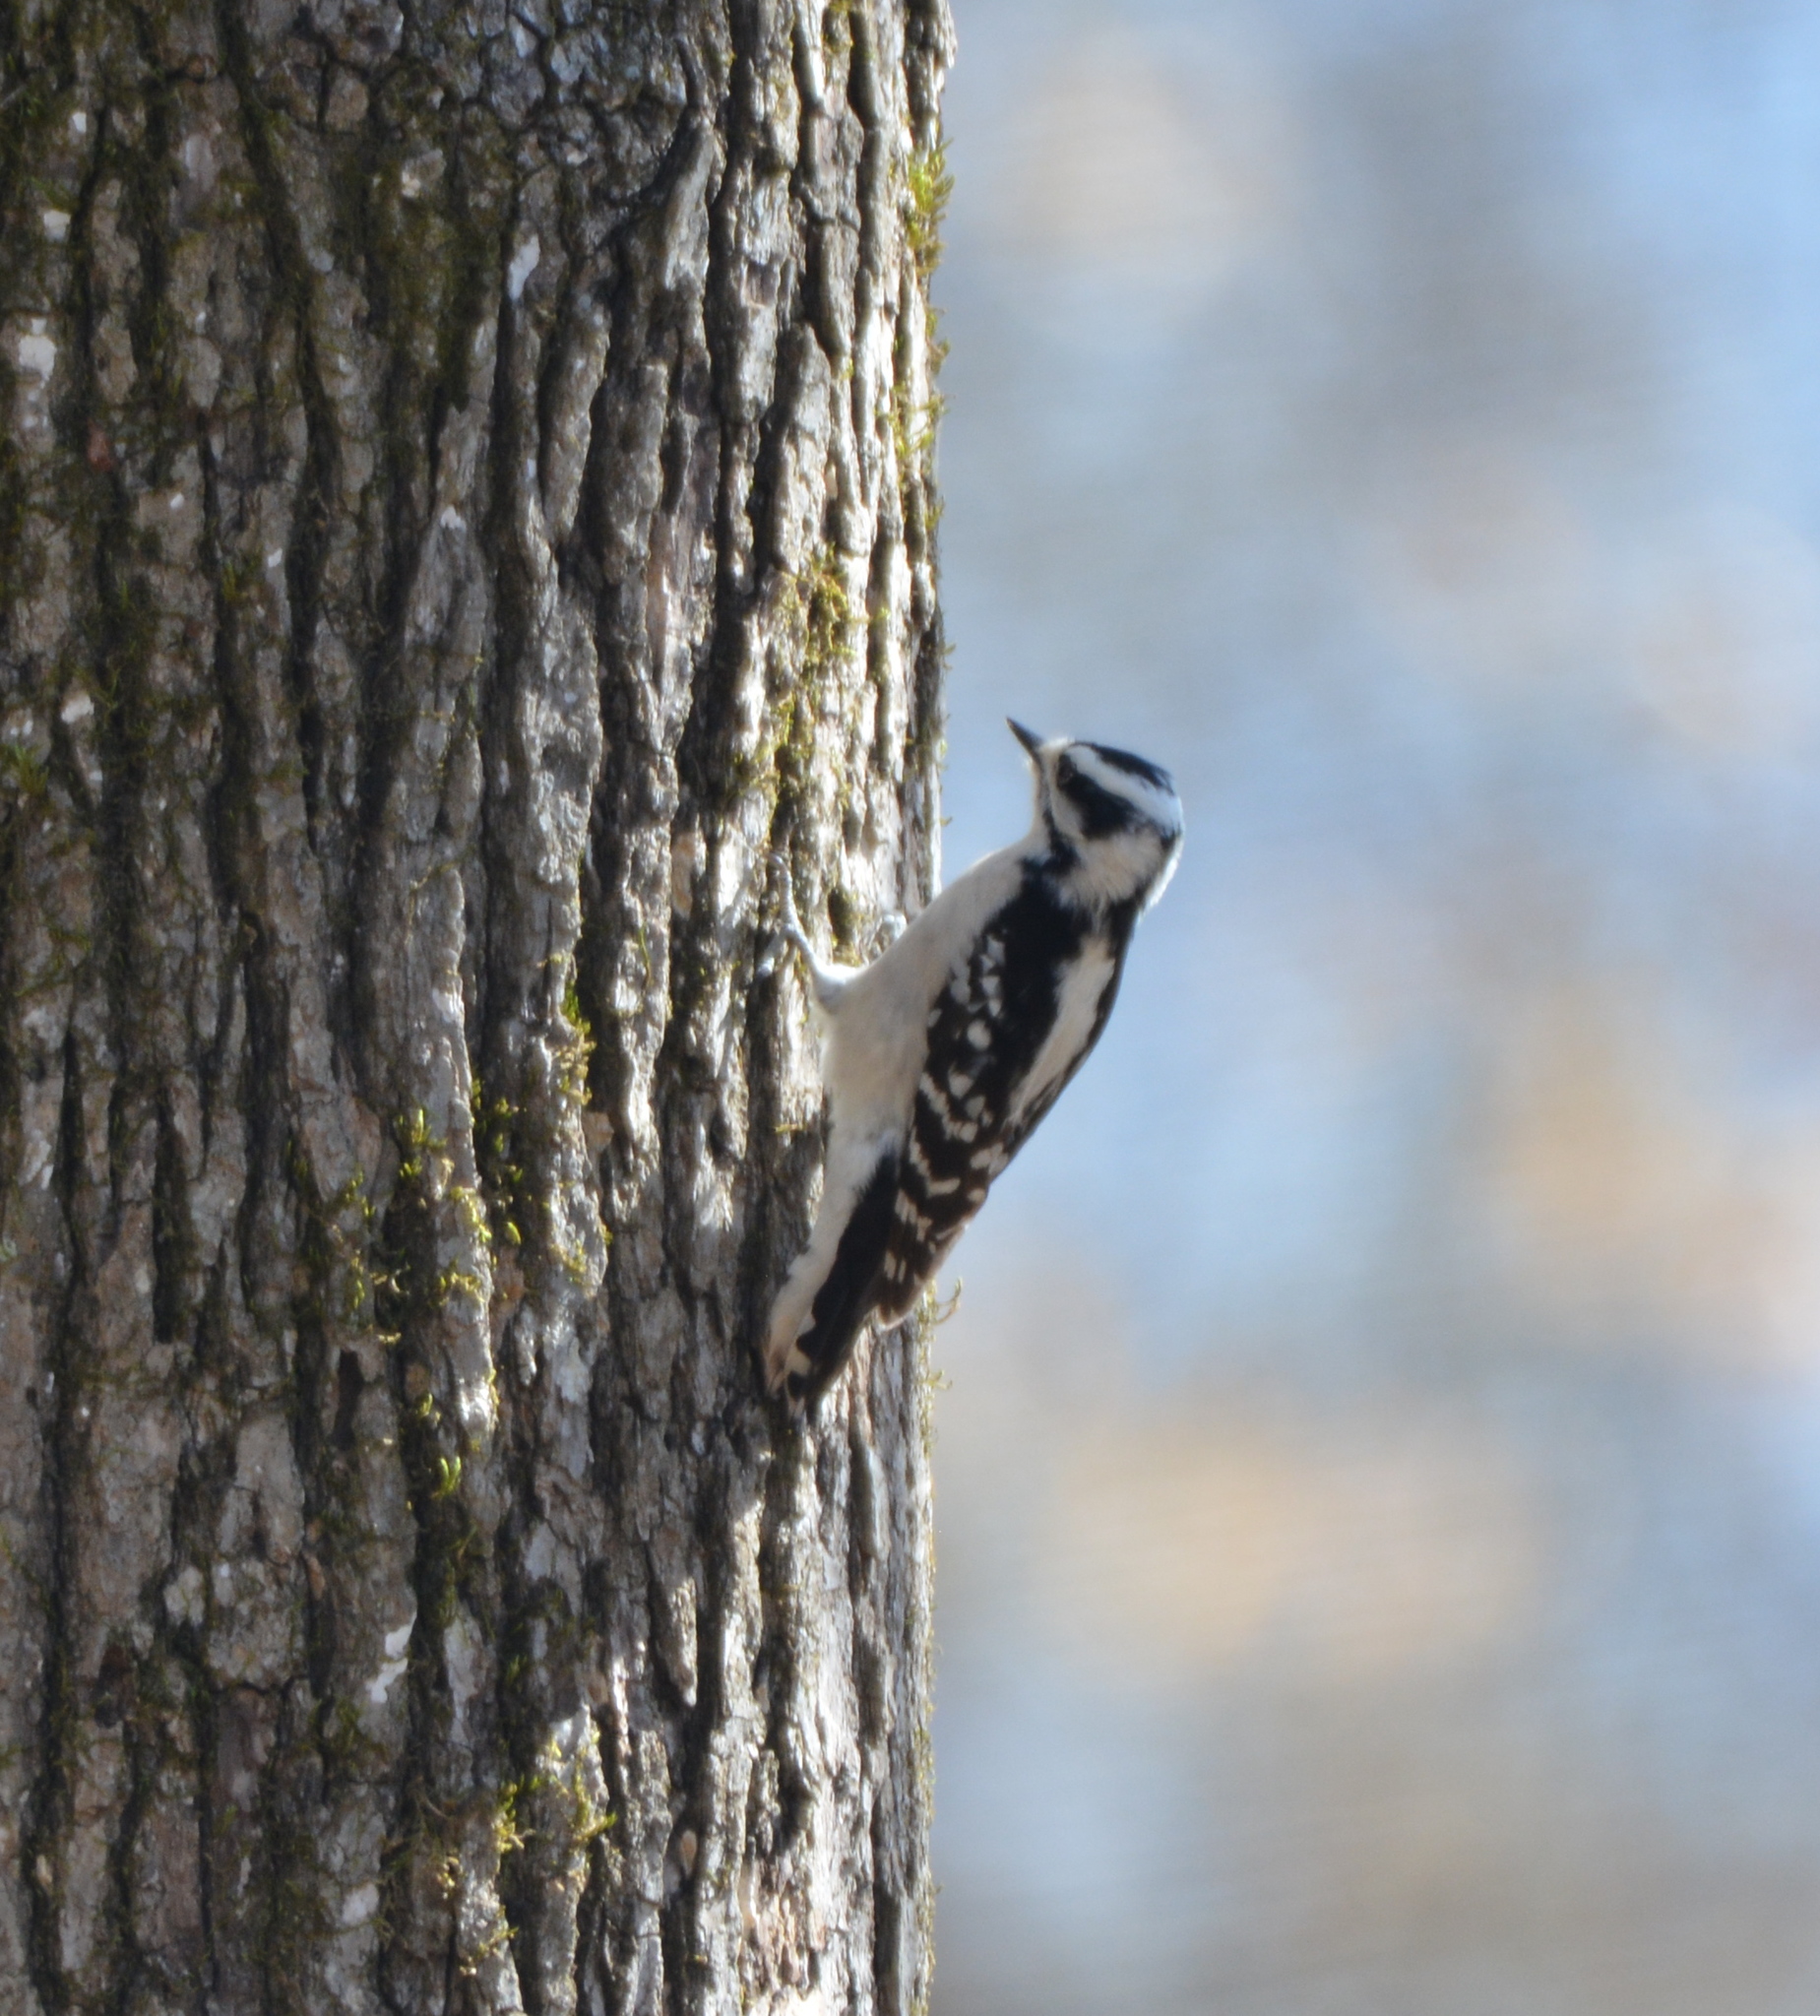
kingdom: Animalia
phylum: Chordata
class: Aves
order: Piciformes
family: Picidae
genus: Dryobates
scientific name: Dryobates pubescens
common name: Downy woodpecker
